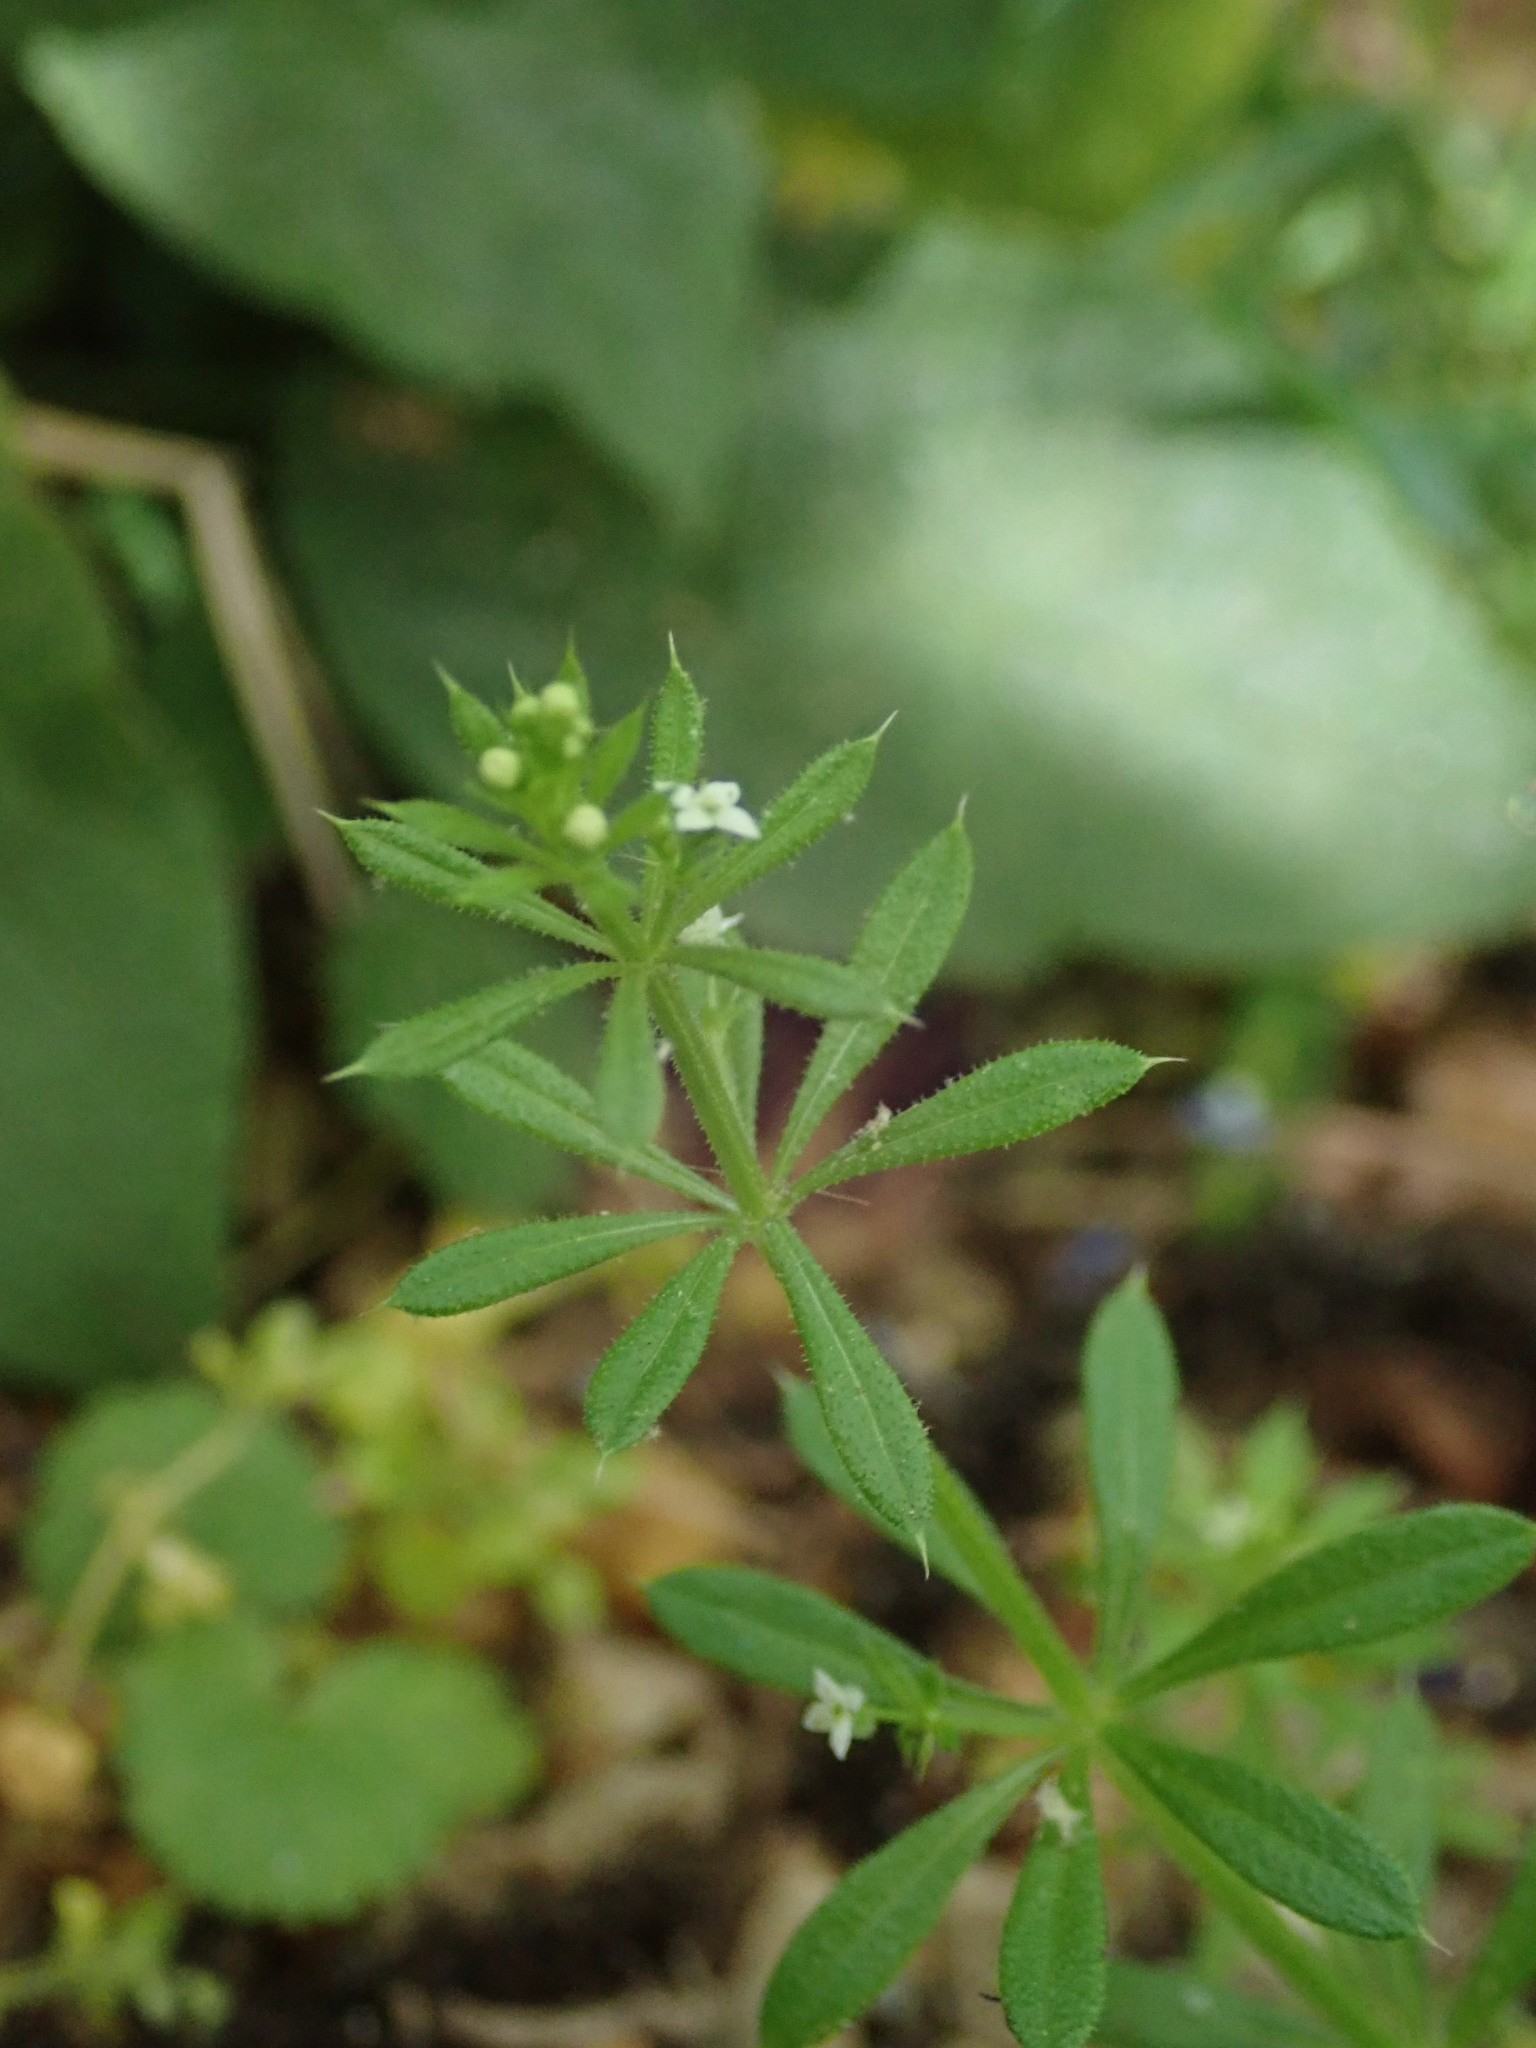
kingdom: Plantae
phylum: Tracheophyta
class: Magnoliopsida
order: Gentianales
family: Rubiaceae
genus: Galium
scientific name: Galium aparine
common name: Cleavers
